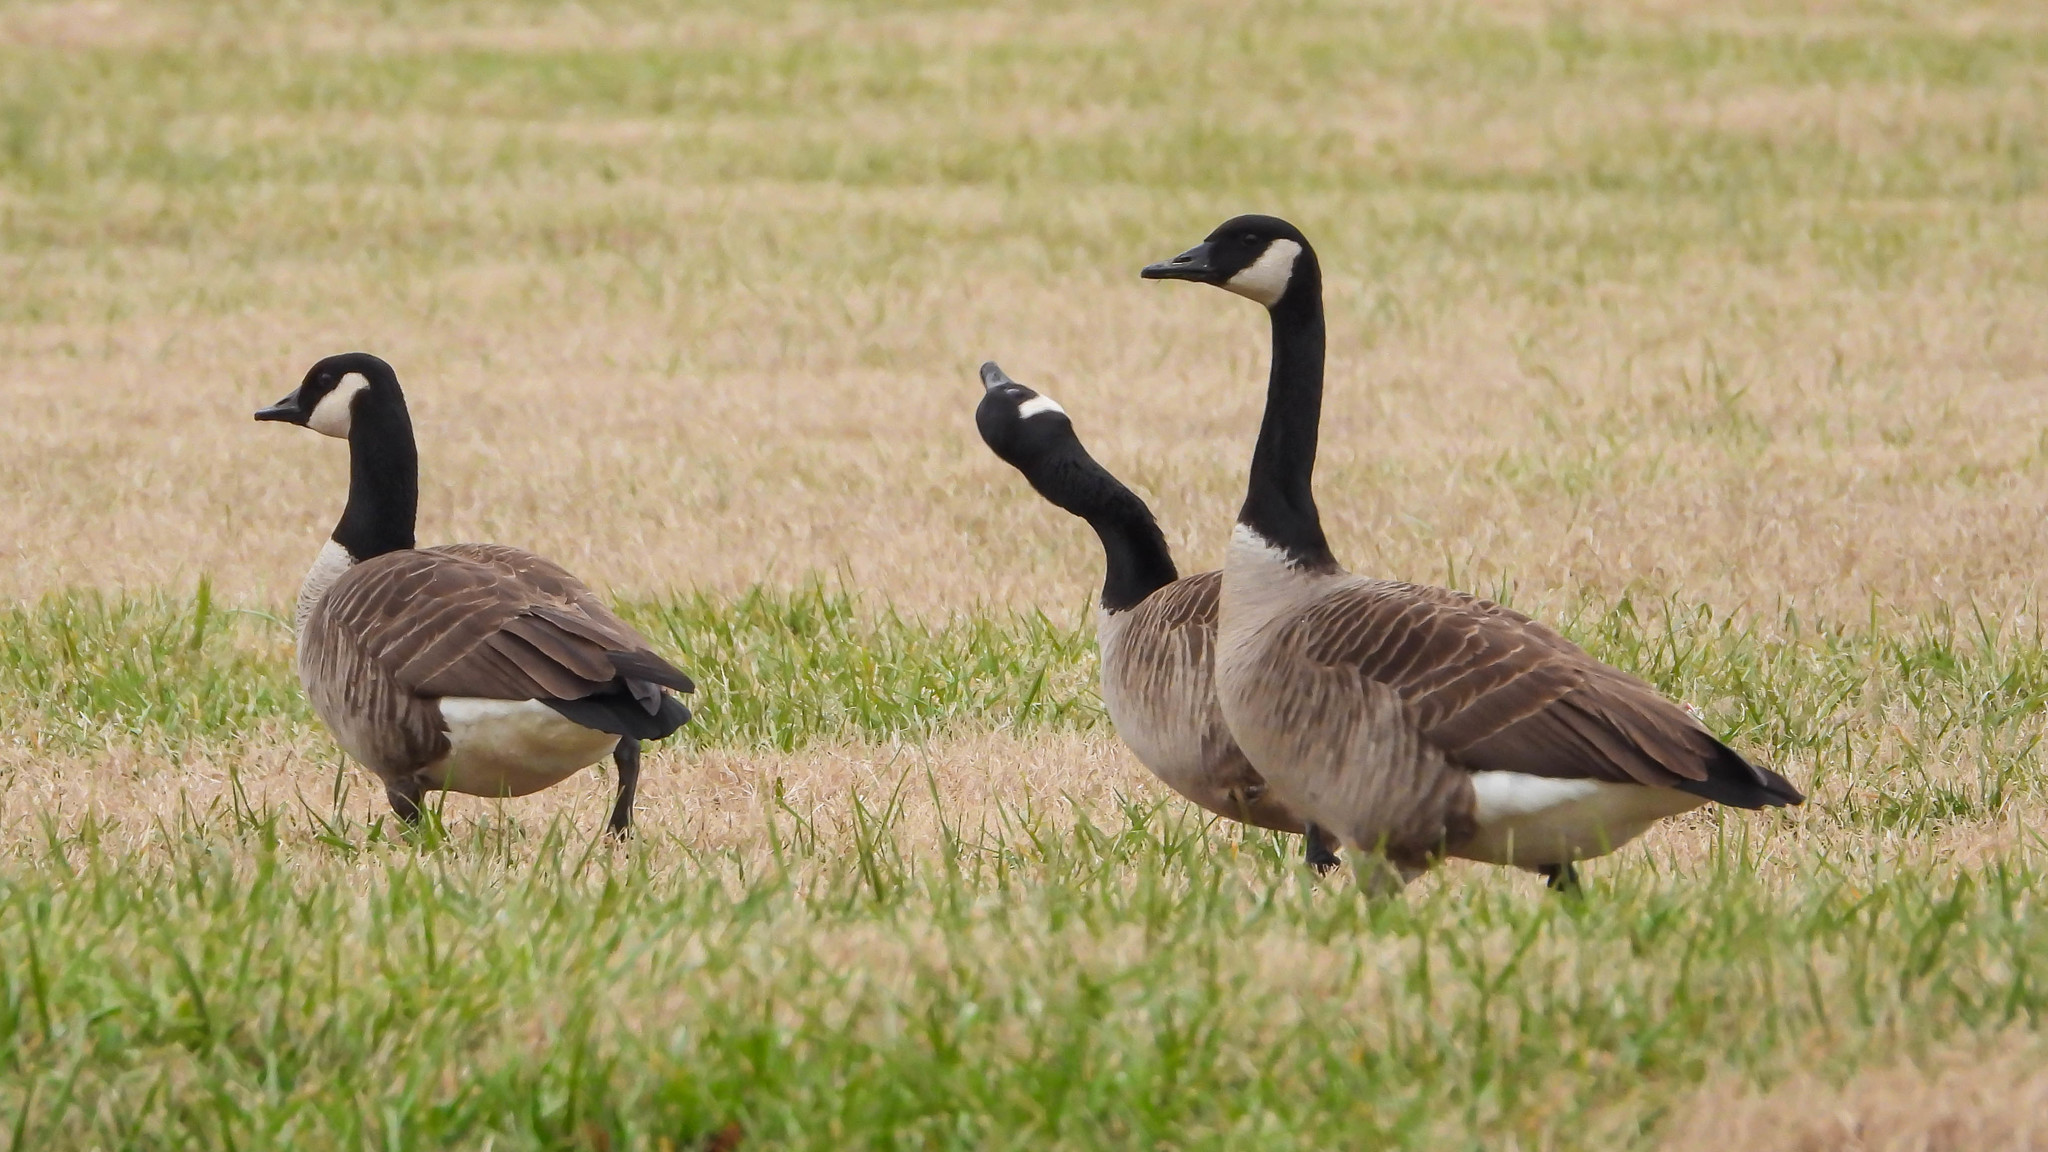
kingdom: Animalia
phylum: Chordata
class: Aves
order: Anseriformes
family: Anatidae
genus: Branta
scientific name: Branta canadensis
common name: Canada goose
